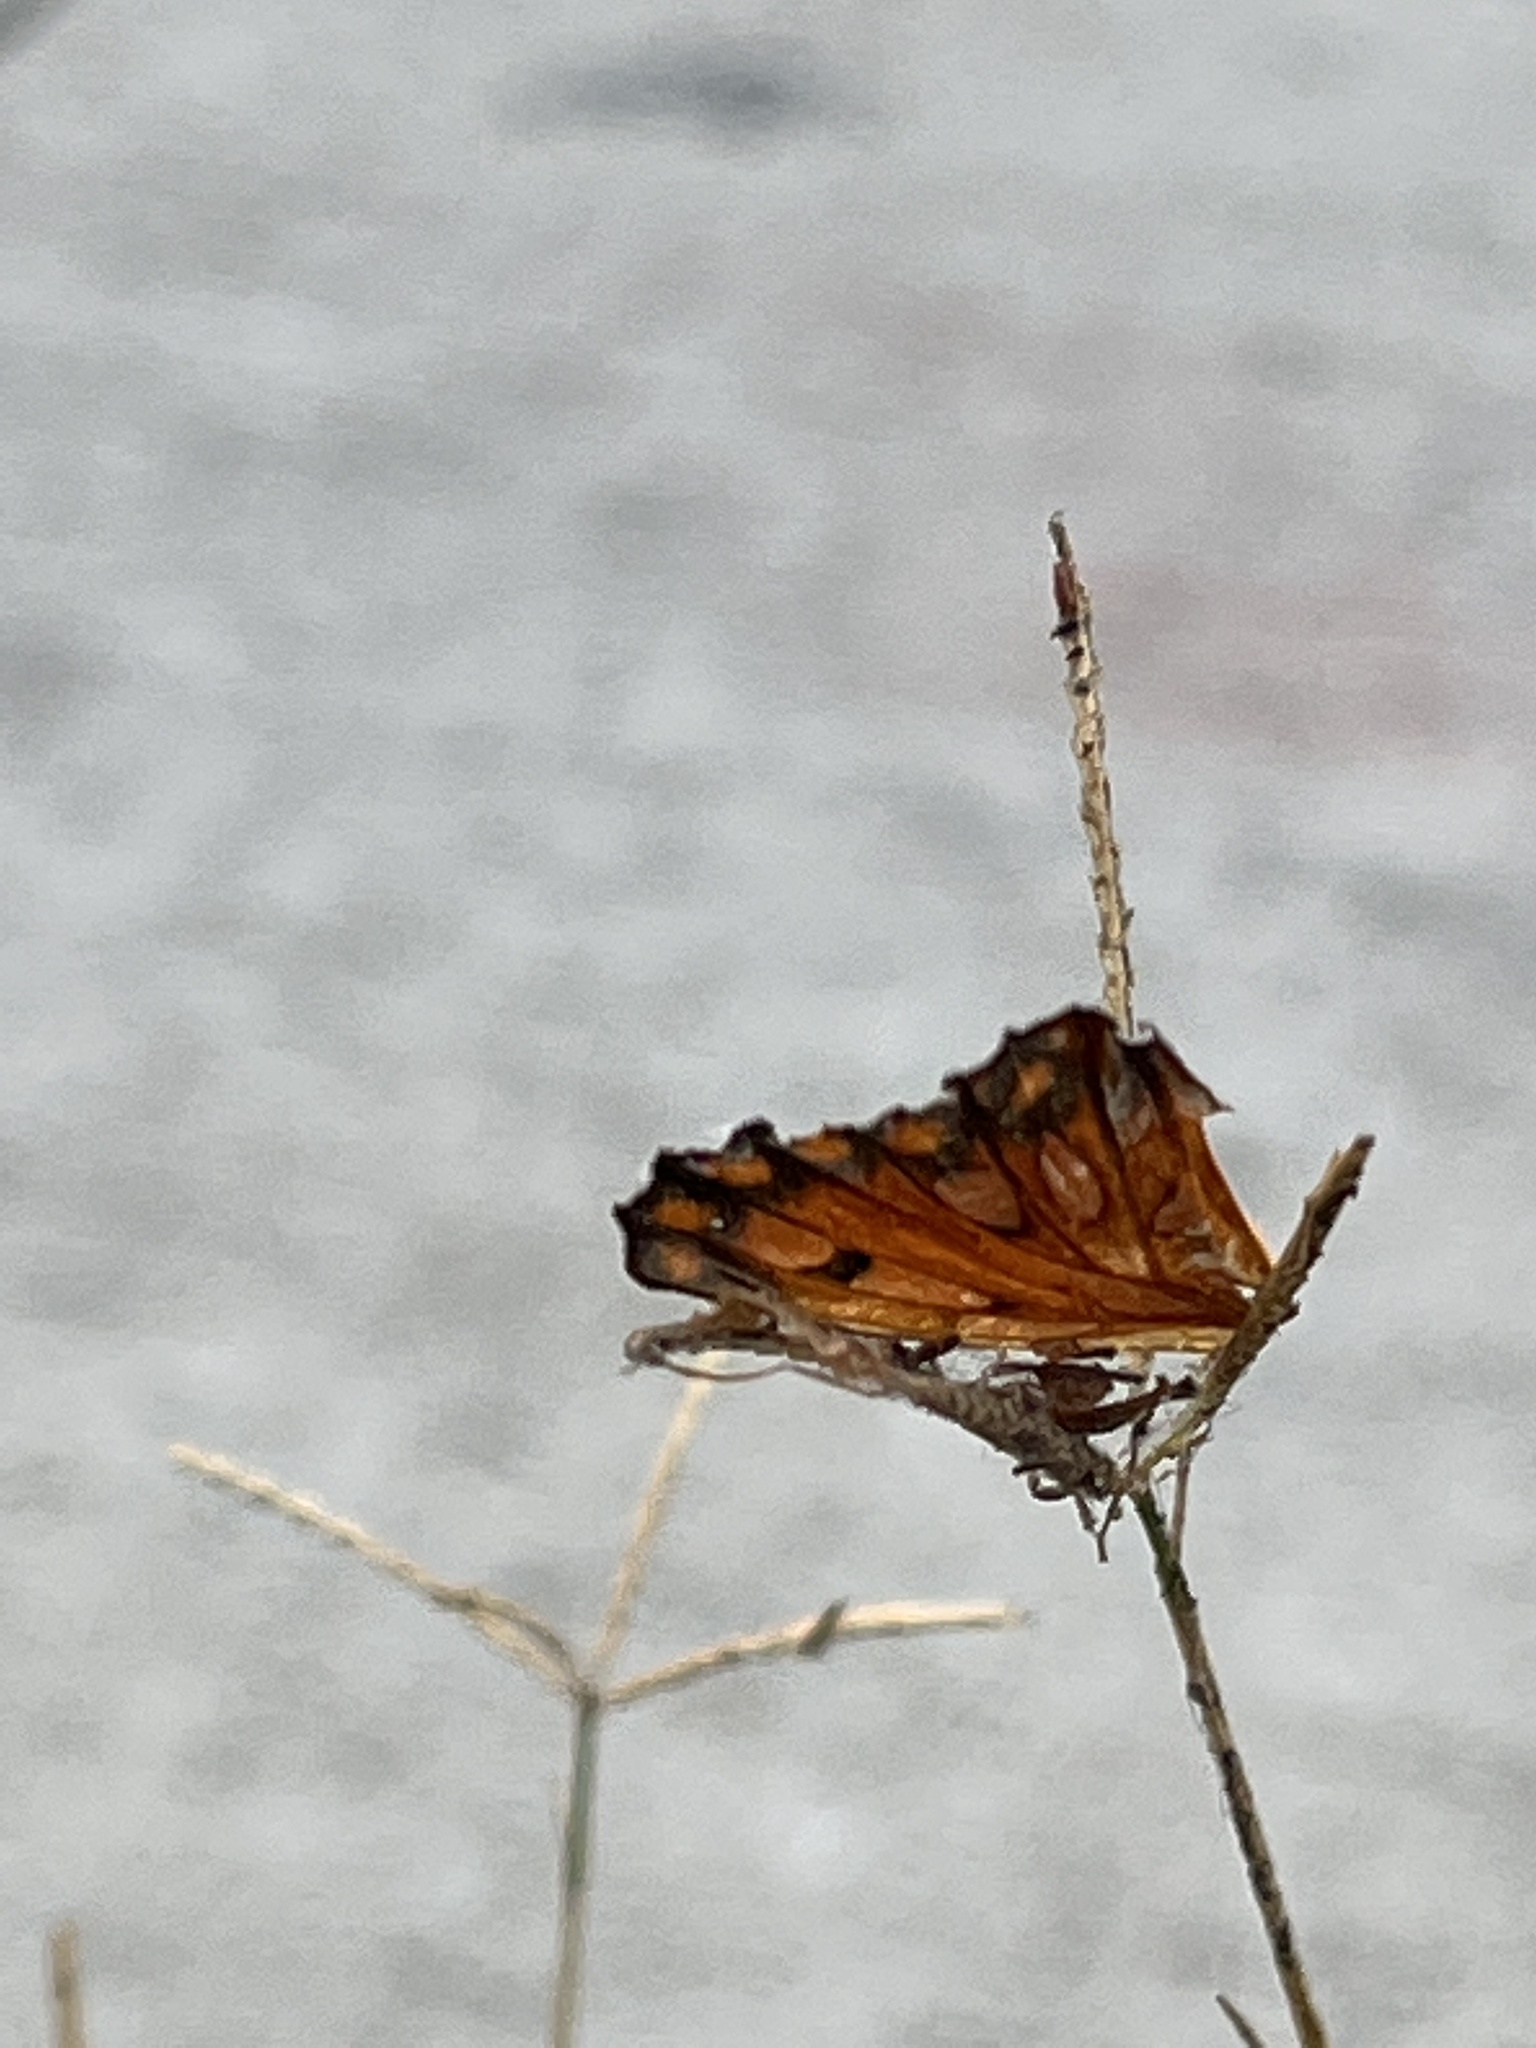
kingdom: Animalia
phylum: Arthropoda
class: Insecta
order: Lepidoptera
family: Nymphalidae
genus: Dione
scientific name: Dione vanillae
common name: Gulf fritillary
